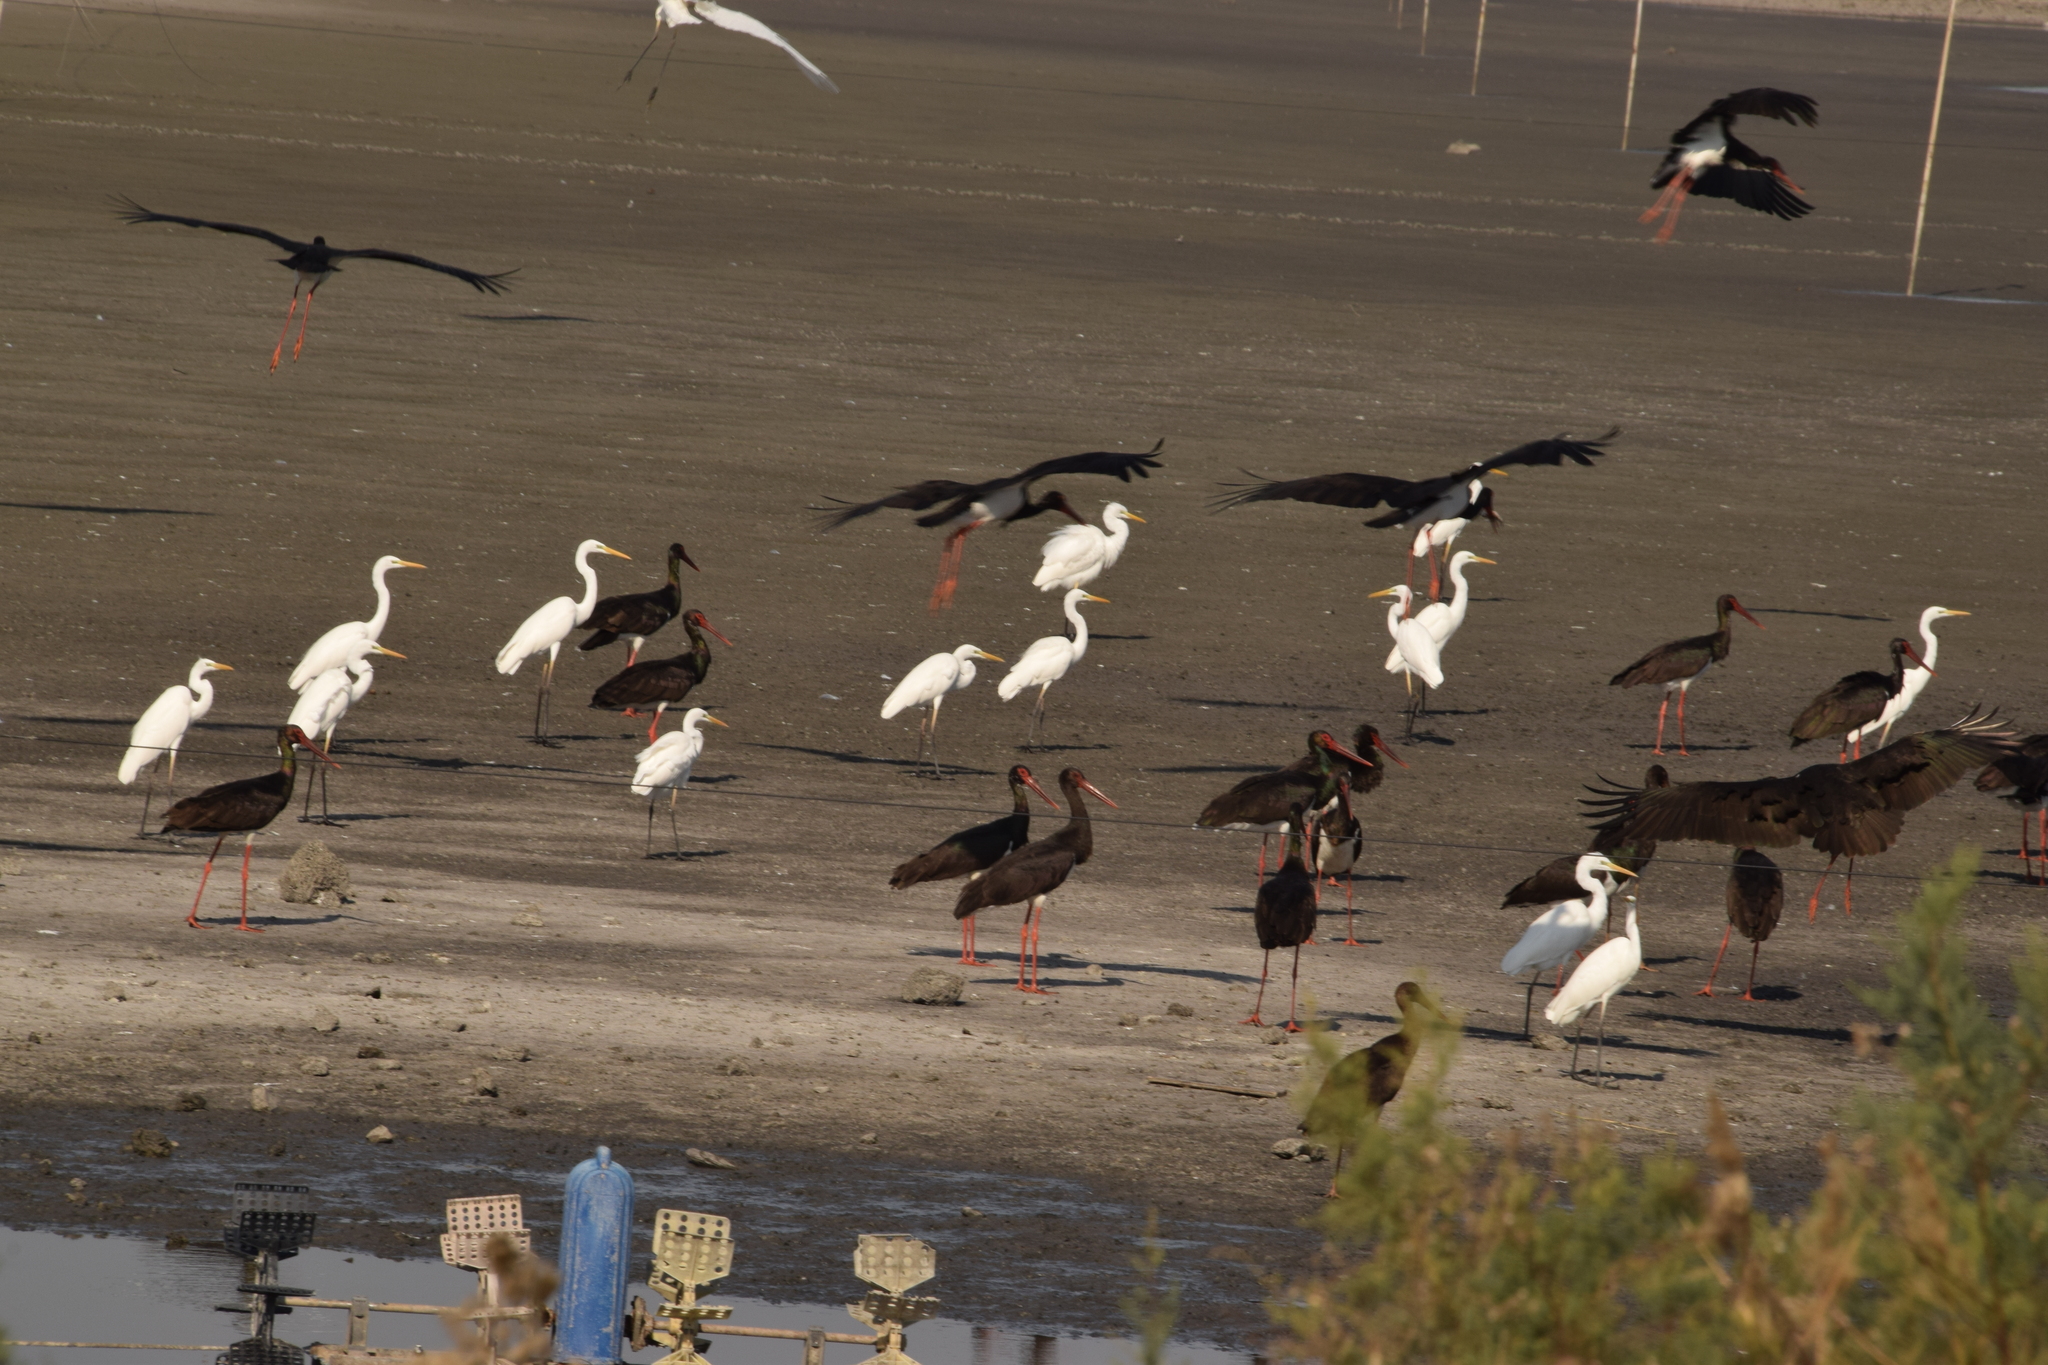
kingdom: Animalia
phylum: Chordata
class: Aves
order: Ciconiiformes
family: Ciconiidae
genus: Ciconia
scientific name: Ciconia nigra
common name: Black stork
